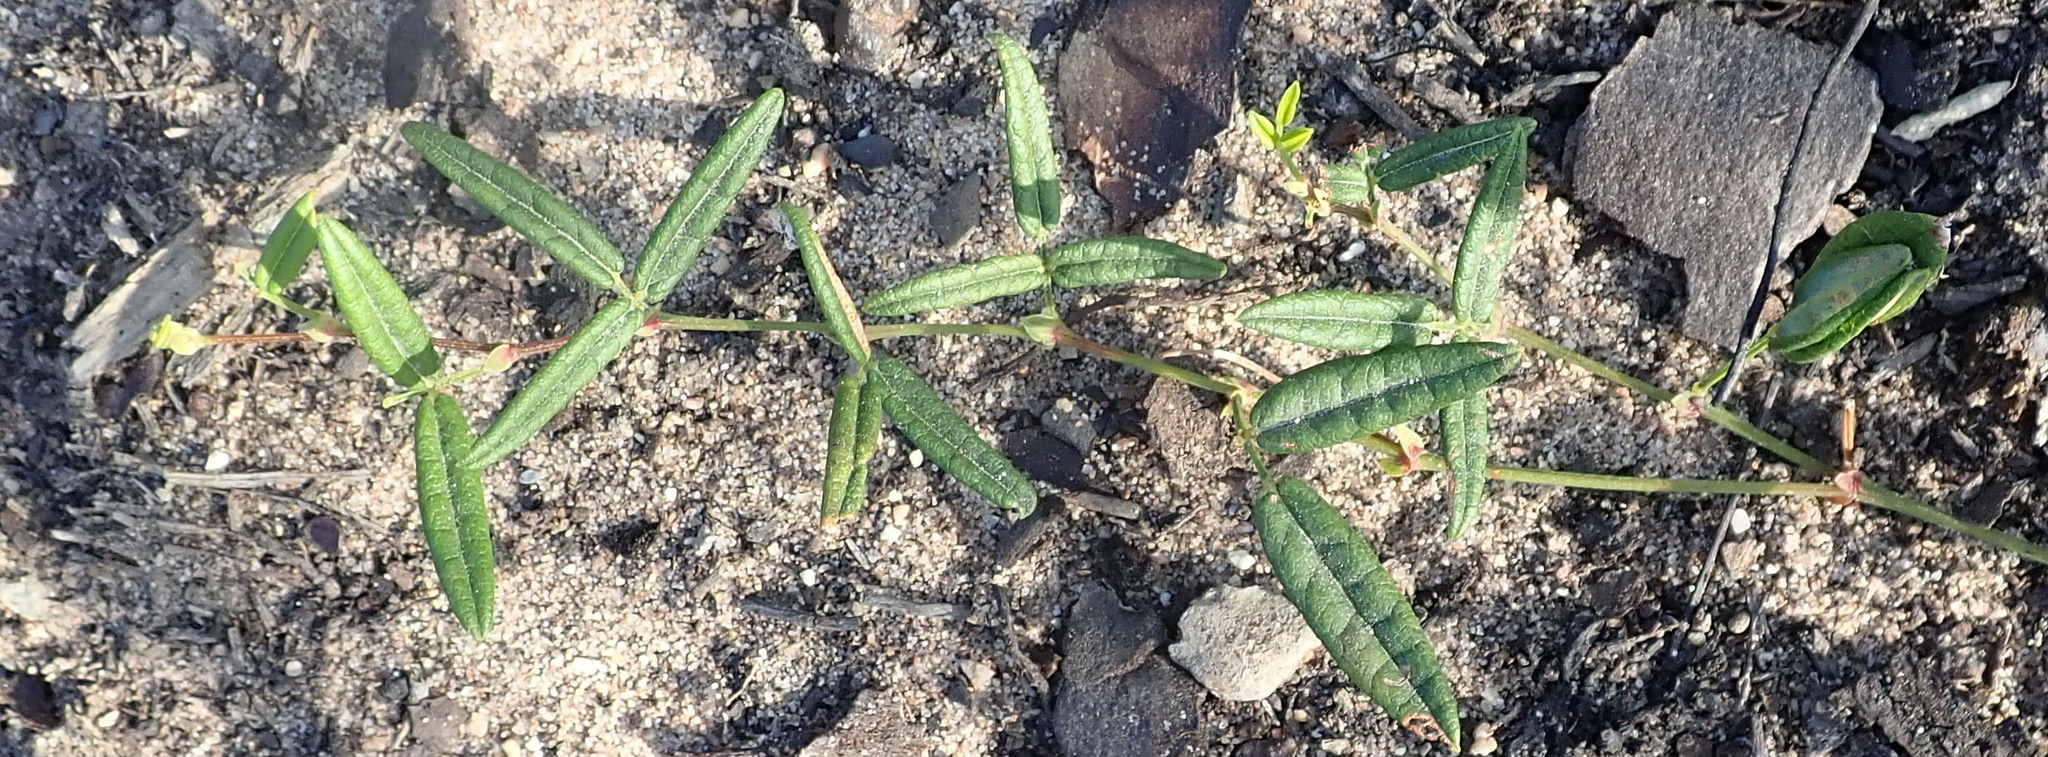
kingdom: Plantae
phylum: Tracheophyta
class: Magnoliopsida
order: Fabales
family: Fabaceae
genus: Rhynchosia
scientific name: Rhynchosia leucoscias
